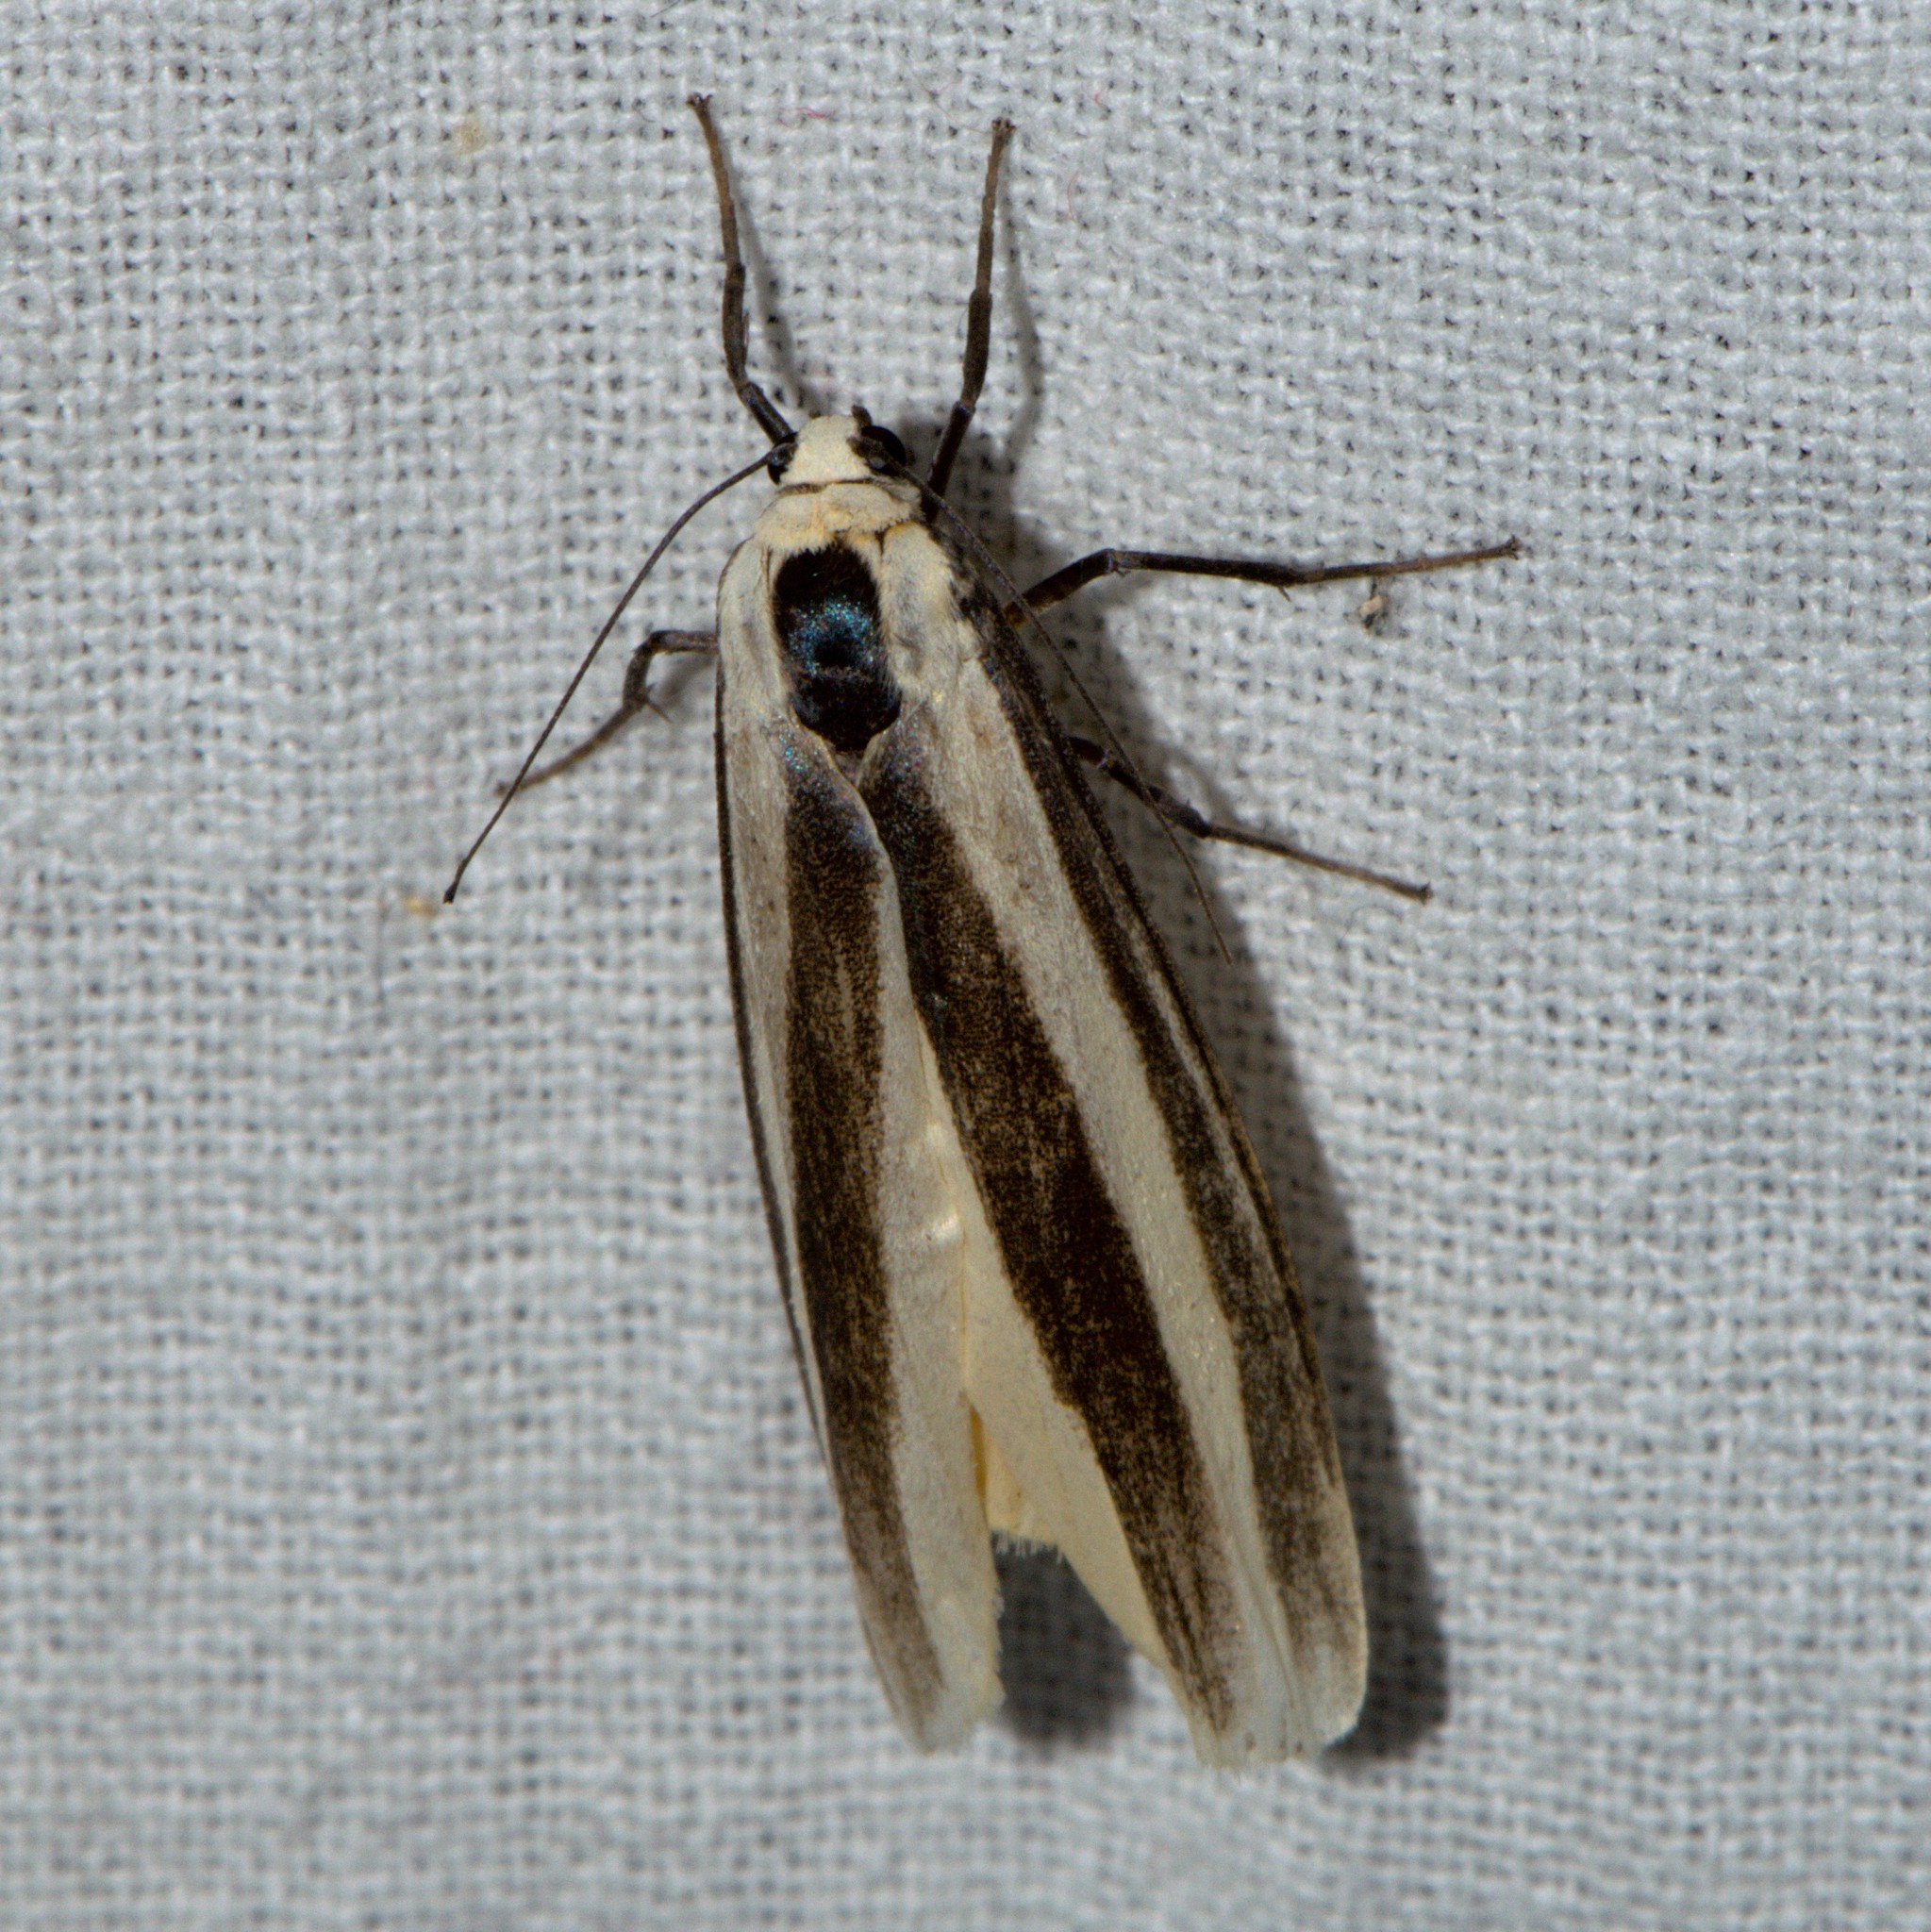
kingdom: Animalia
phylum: Arthropoda
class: Insecta
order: Lepidoptera
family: Erebidae
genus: Chrysorabdia
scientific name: Chrysorabdia viridata
